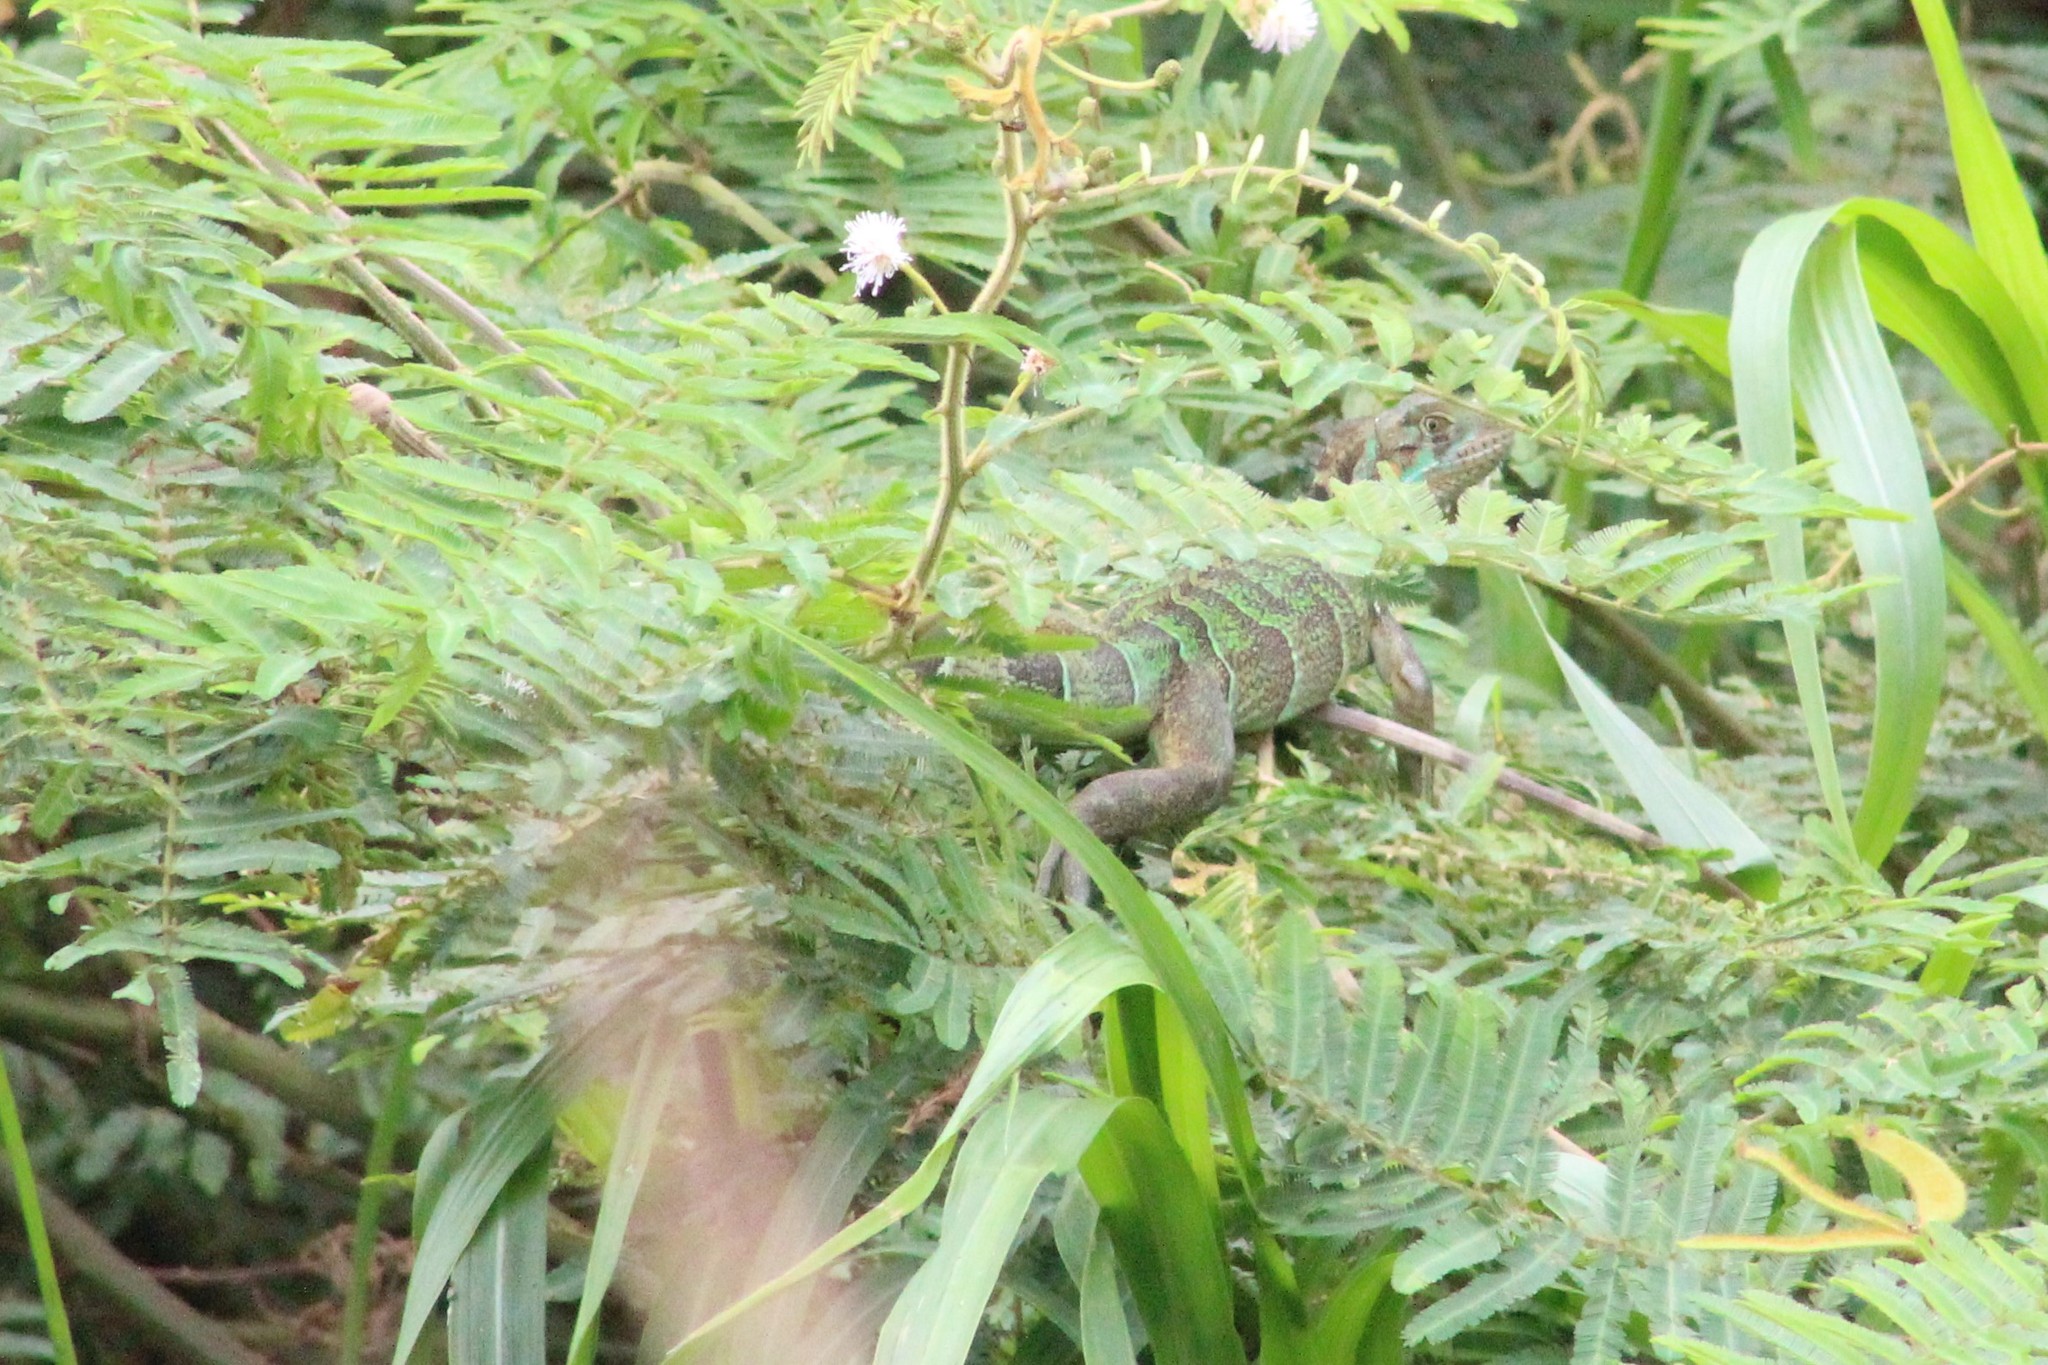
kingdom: Animalia
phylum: Chordata
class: Squamata
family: Iguanidae
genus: Iguana
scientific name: Iguana iguana
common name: Green iguana
